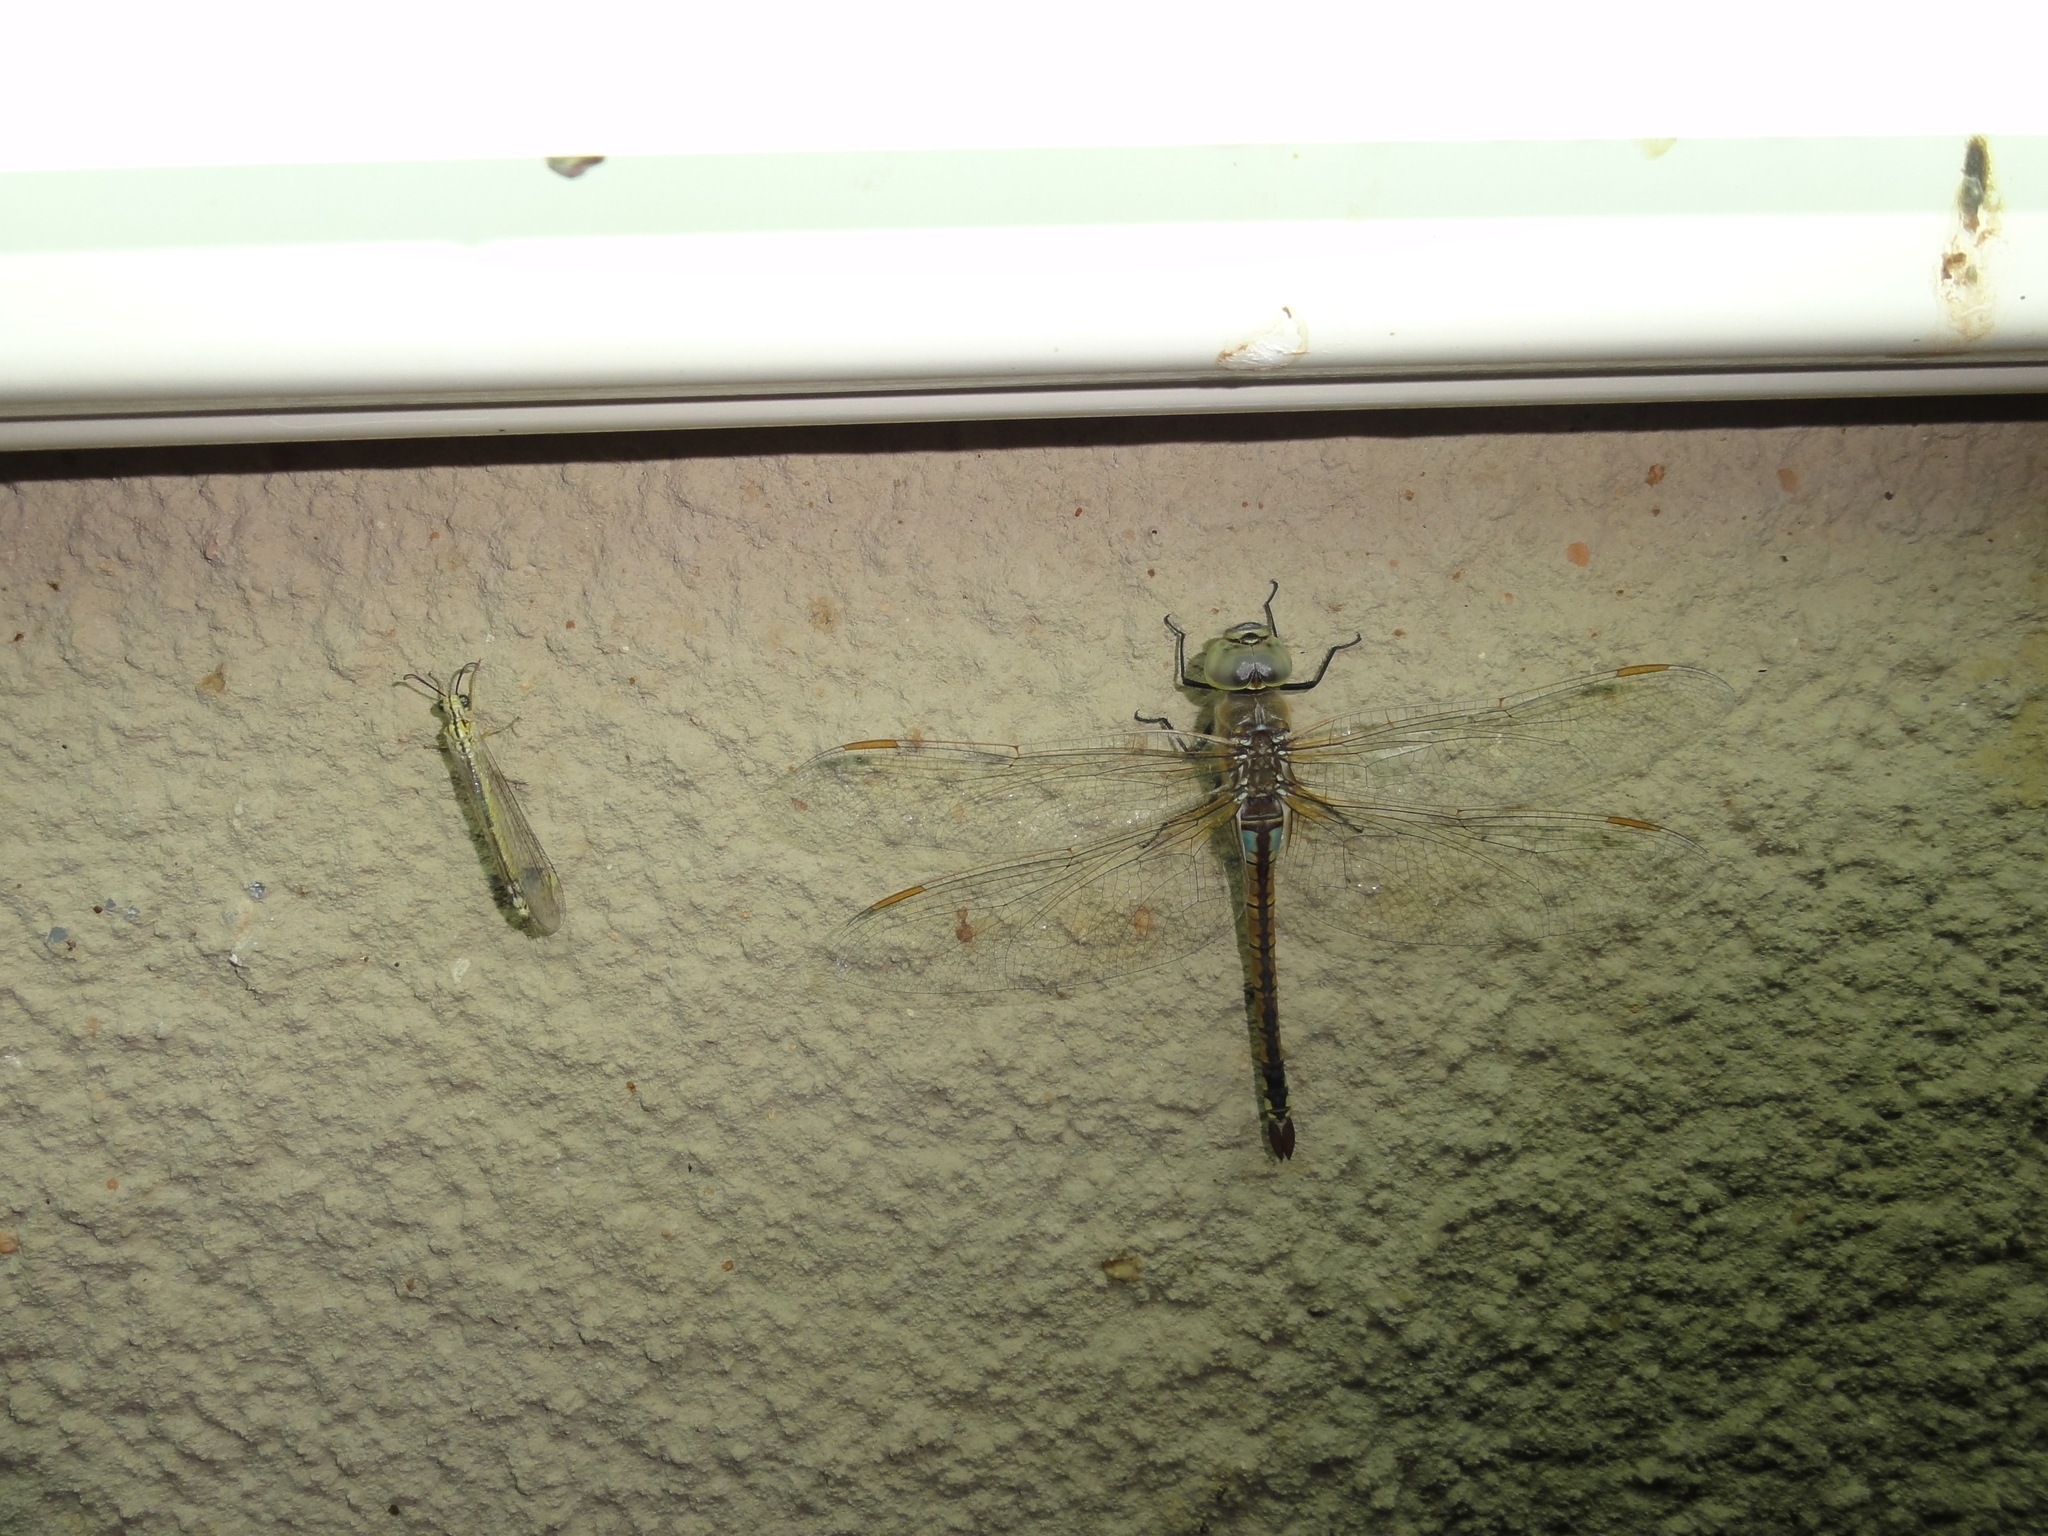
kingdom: Animalia
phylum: Arthropoda
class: Insecta
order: Odonata
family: Aeshnidae
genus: Anax
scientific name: Anax ephippiger
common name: Vagrant emperor
